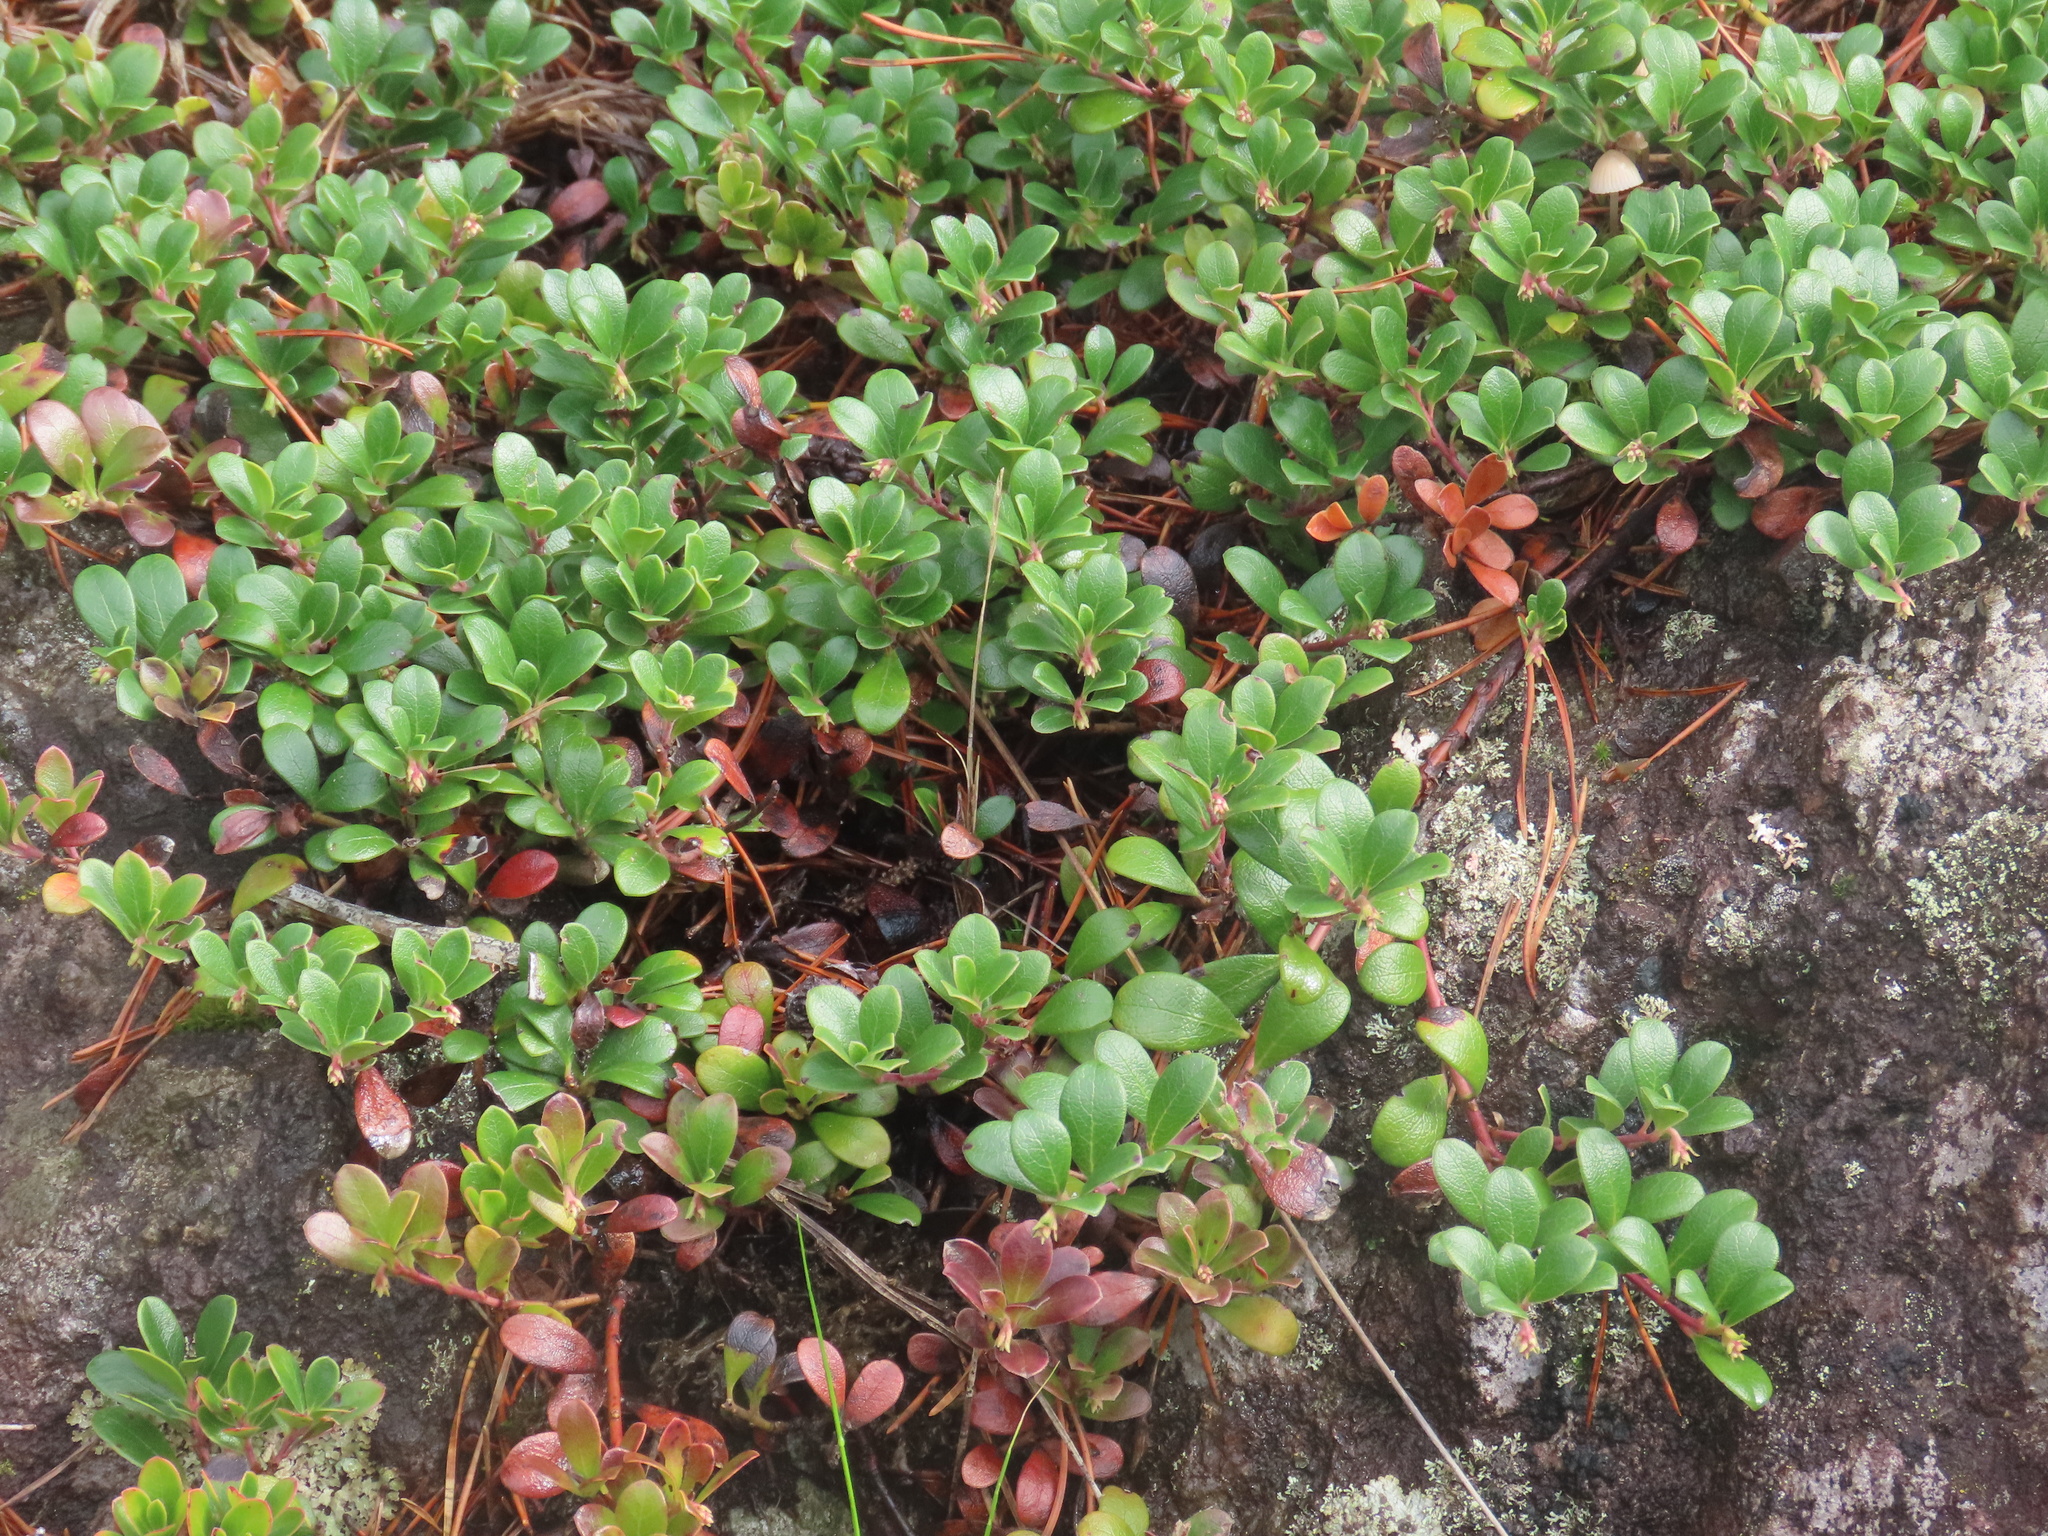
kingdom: Plantae
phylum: Tracheophyta
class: Magnoliopsida
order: Ericales
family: Ericaceae
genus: Arctostaphylos
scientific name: Arctostaphylos uva-ursi
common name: Bearberry
